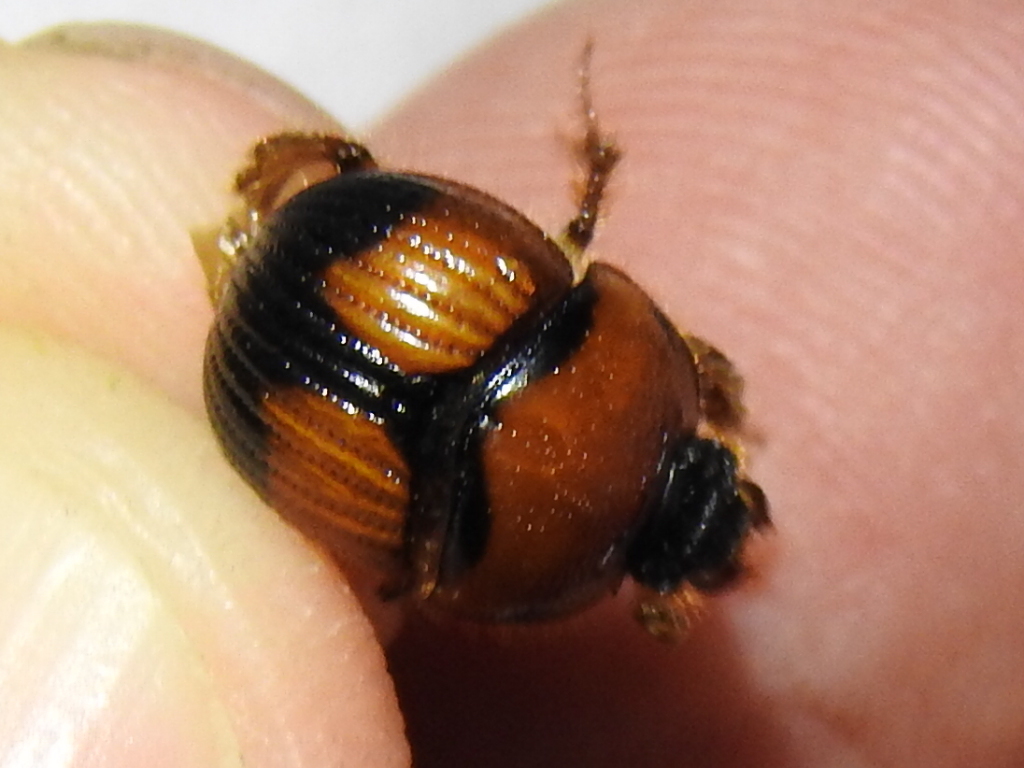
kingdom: Animalia
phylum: Arthropoda
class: Insecta
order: Coleoptera
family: Geotrupidae
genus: Bolbocerosoma
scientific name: Bolbocerosoma pusillum
